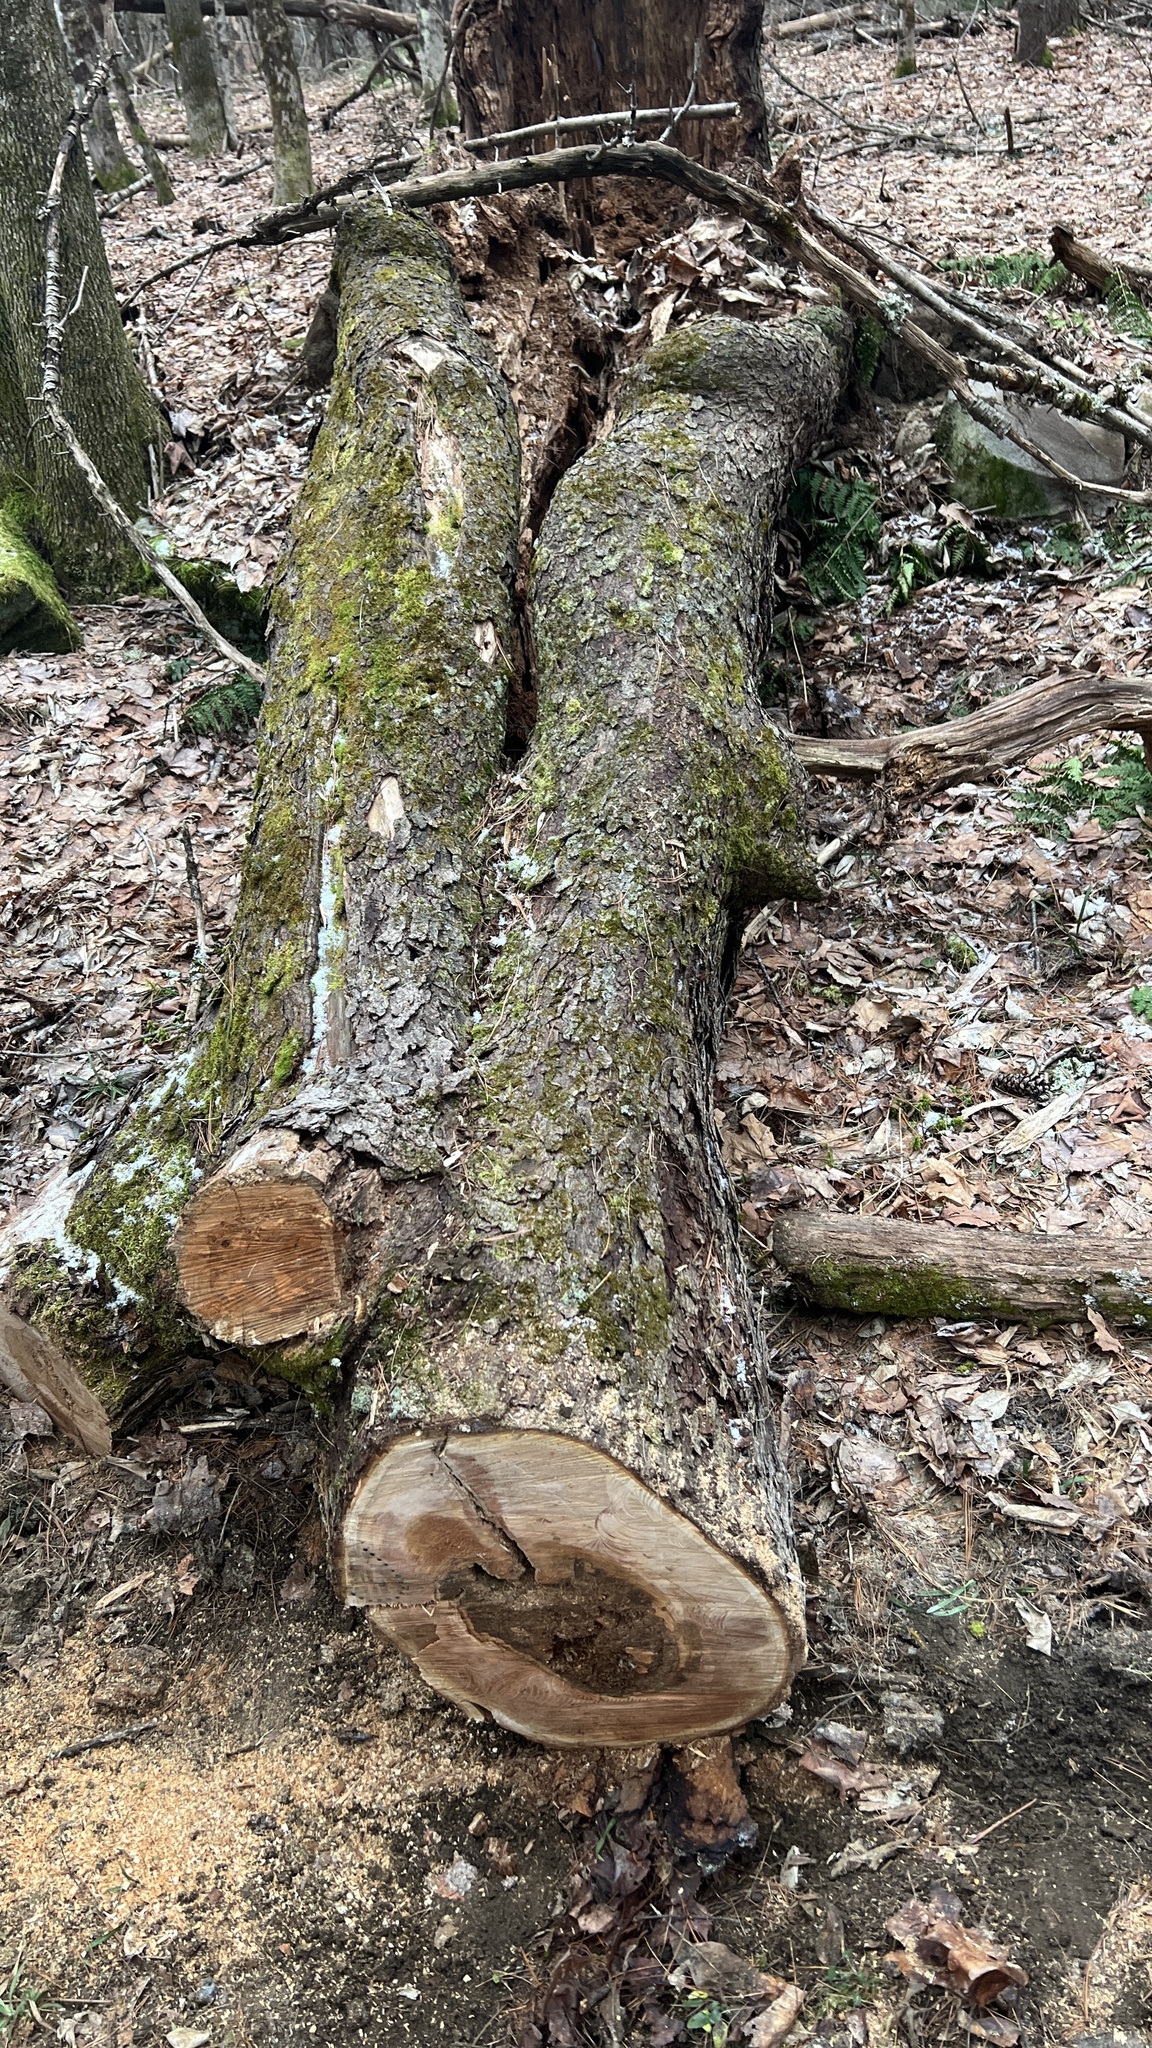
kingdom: Plantae
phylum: Tracheophyta
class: Magnoliopsida
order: Rosales
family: Rosaceae
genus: Prunus
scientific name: Prunus serotina
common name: Black cherry
